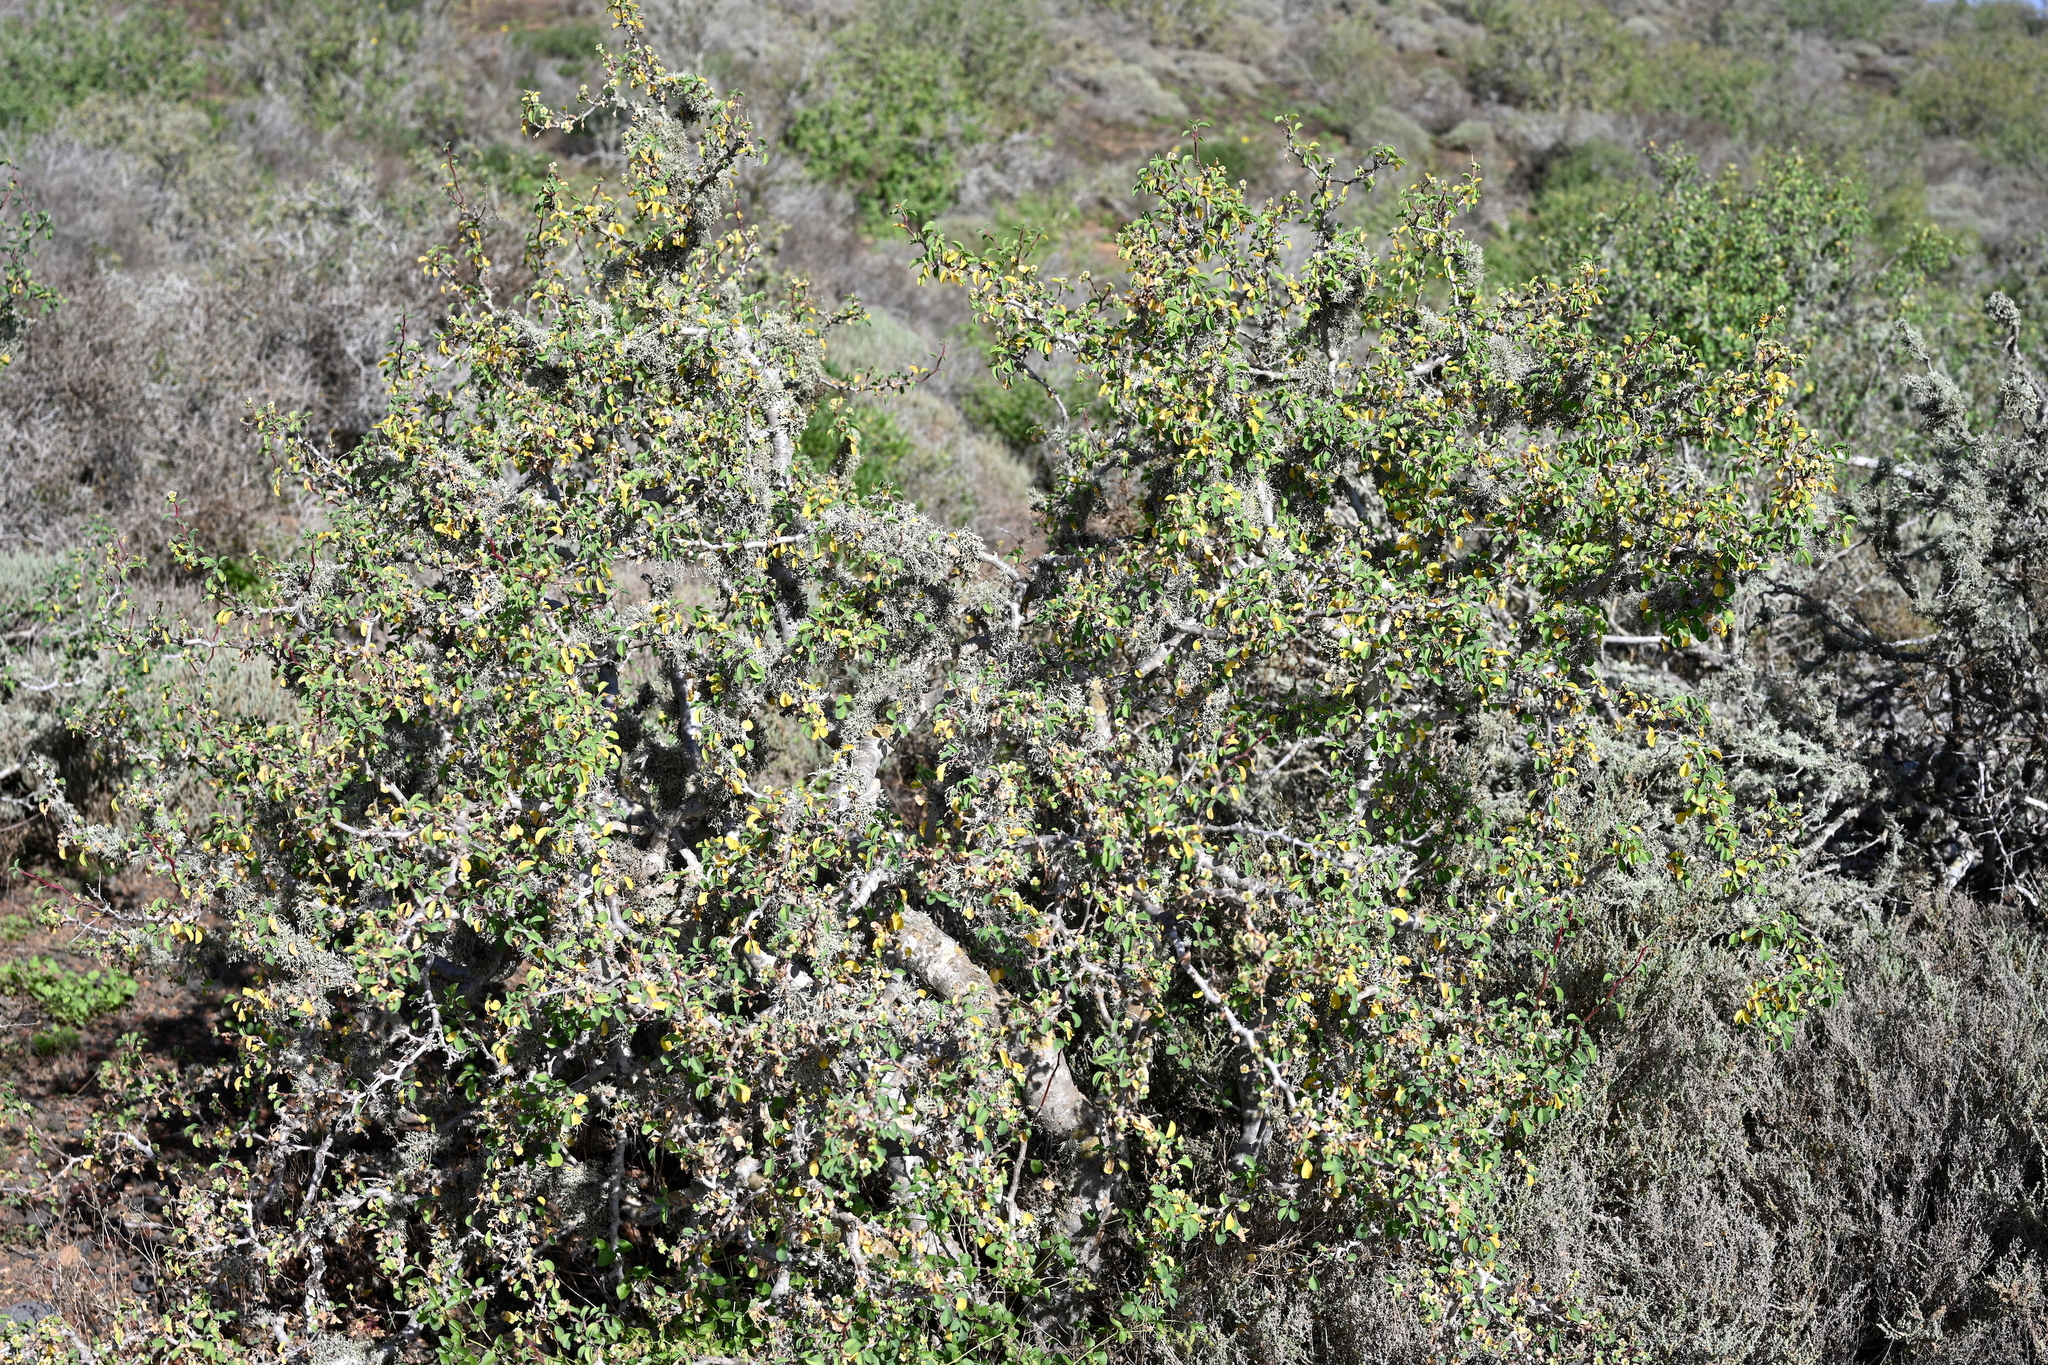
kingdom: Plantae
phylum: Tracheophyta
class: Magnoliopsida
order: Malpighiales
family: Euphorbiaceae
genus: Euphorbia
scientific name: Euphorbia misera
